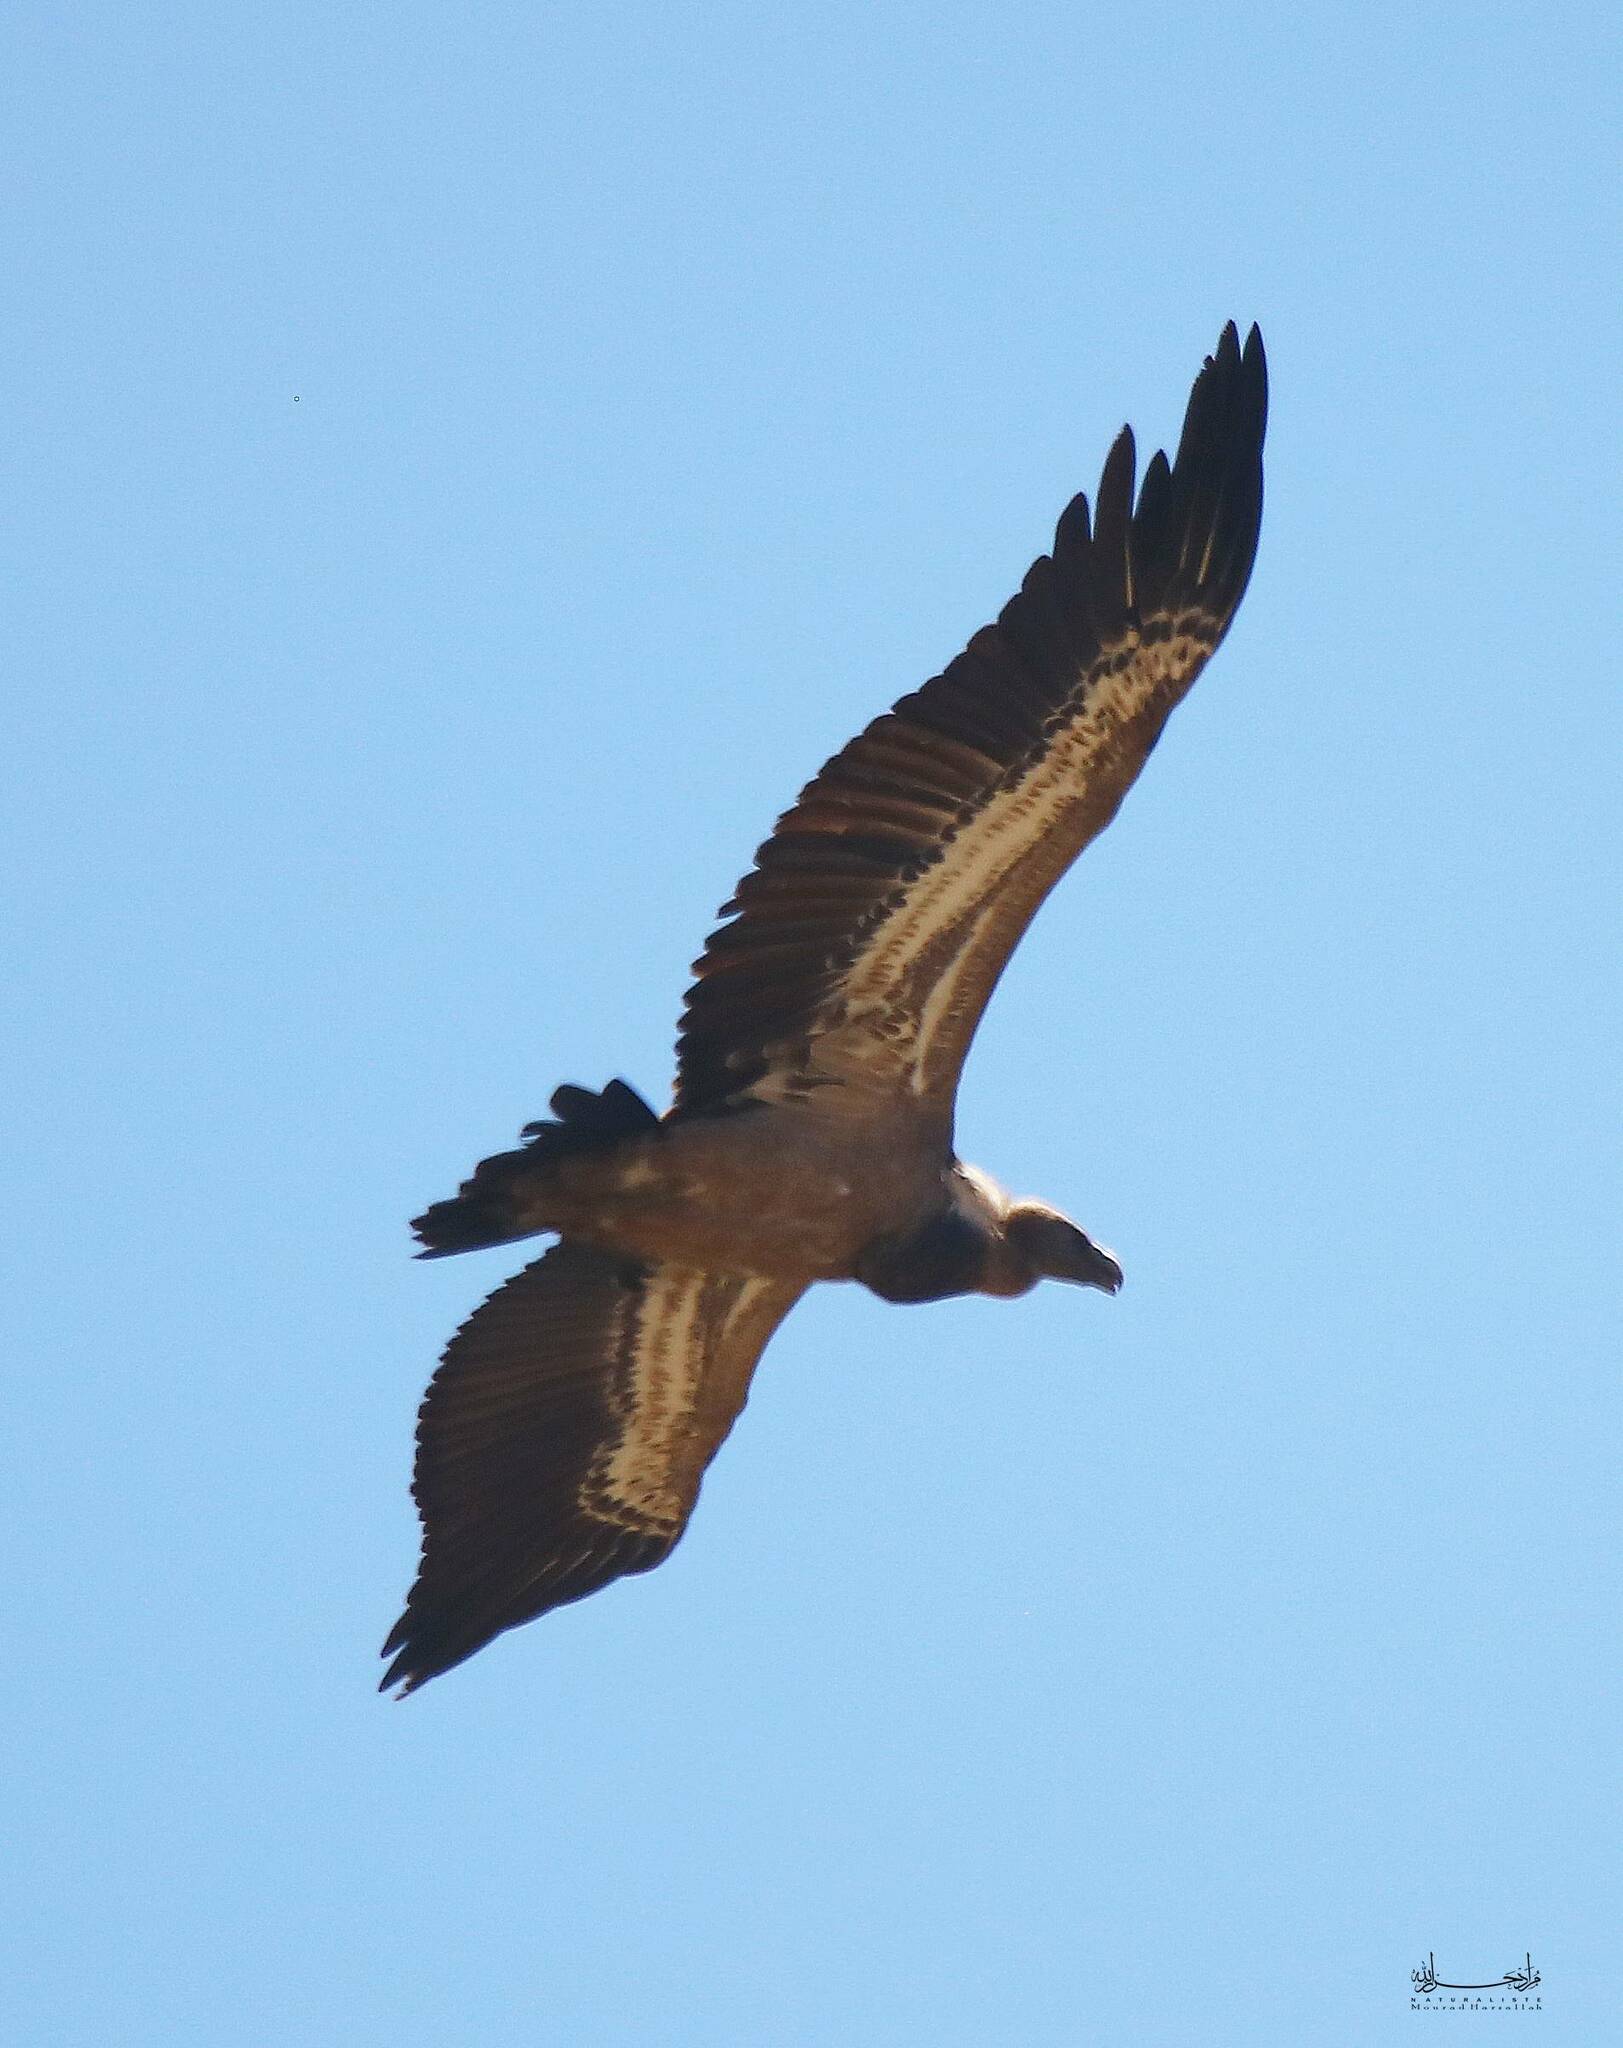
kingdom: Animalia
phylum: Chordata
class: Aves
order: Accipitriformes
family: Accipitridae
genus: Gyps
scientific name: Gyps fulvus
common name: Griffon vulture
